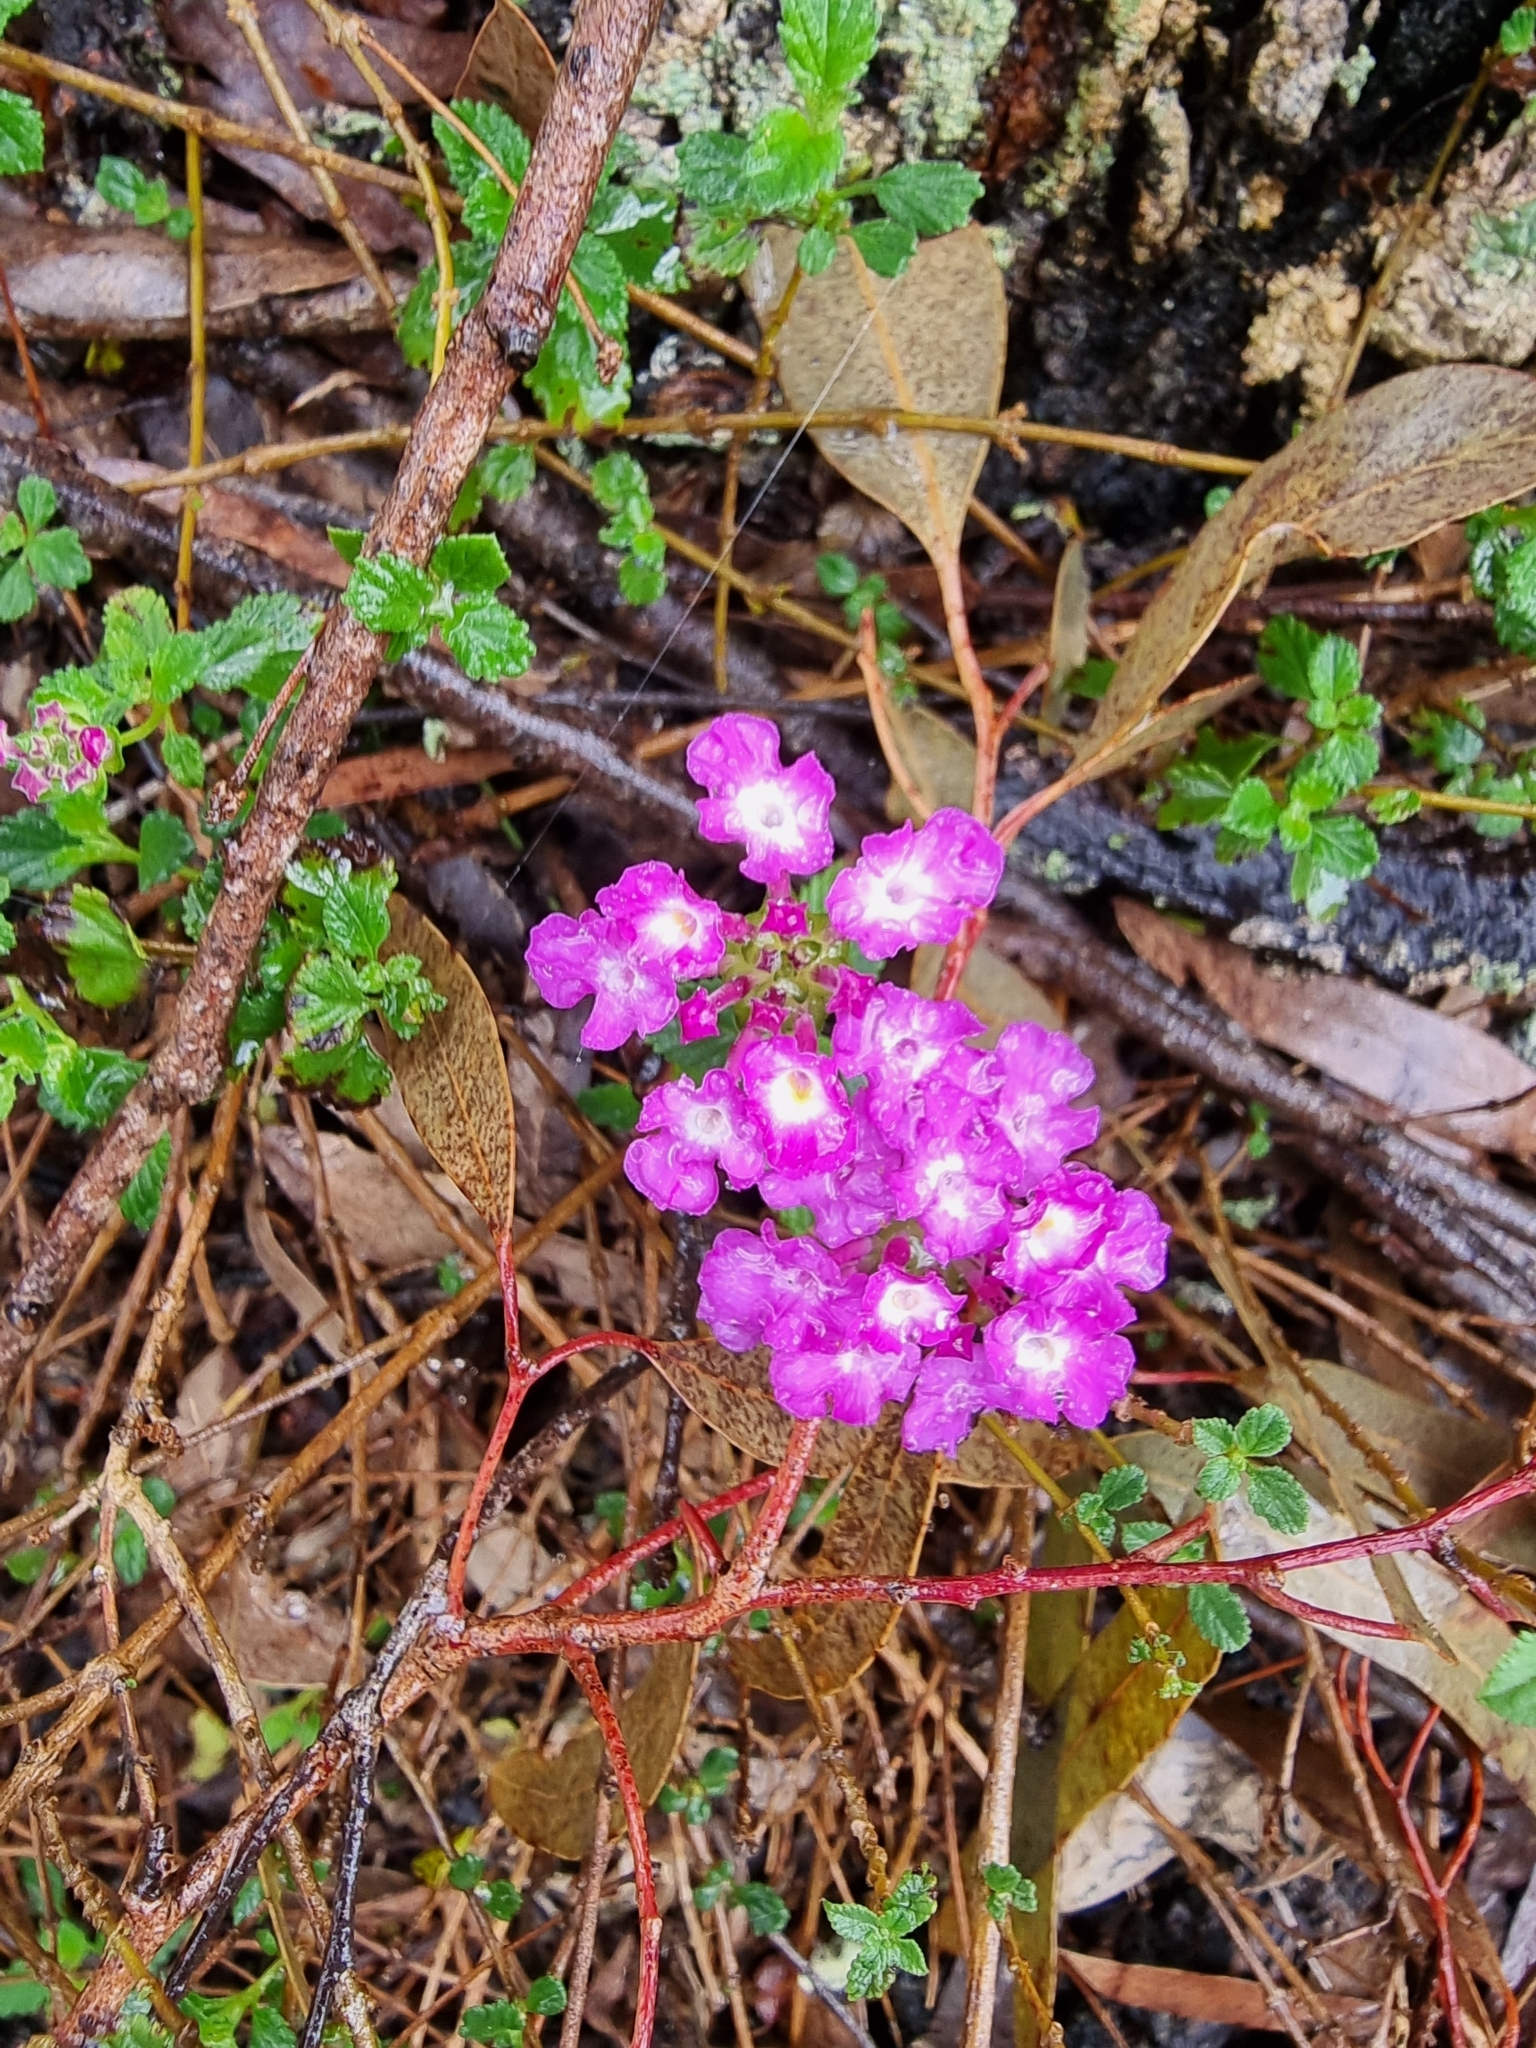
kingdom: Plantae
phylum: Tracheophyta
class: Magnoliopsida
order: Lamiales
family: Verbenaceae
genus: Lantana
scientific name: Lantana montevidensis
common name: Trailing shrubverbena
